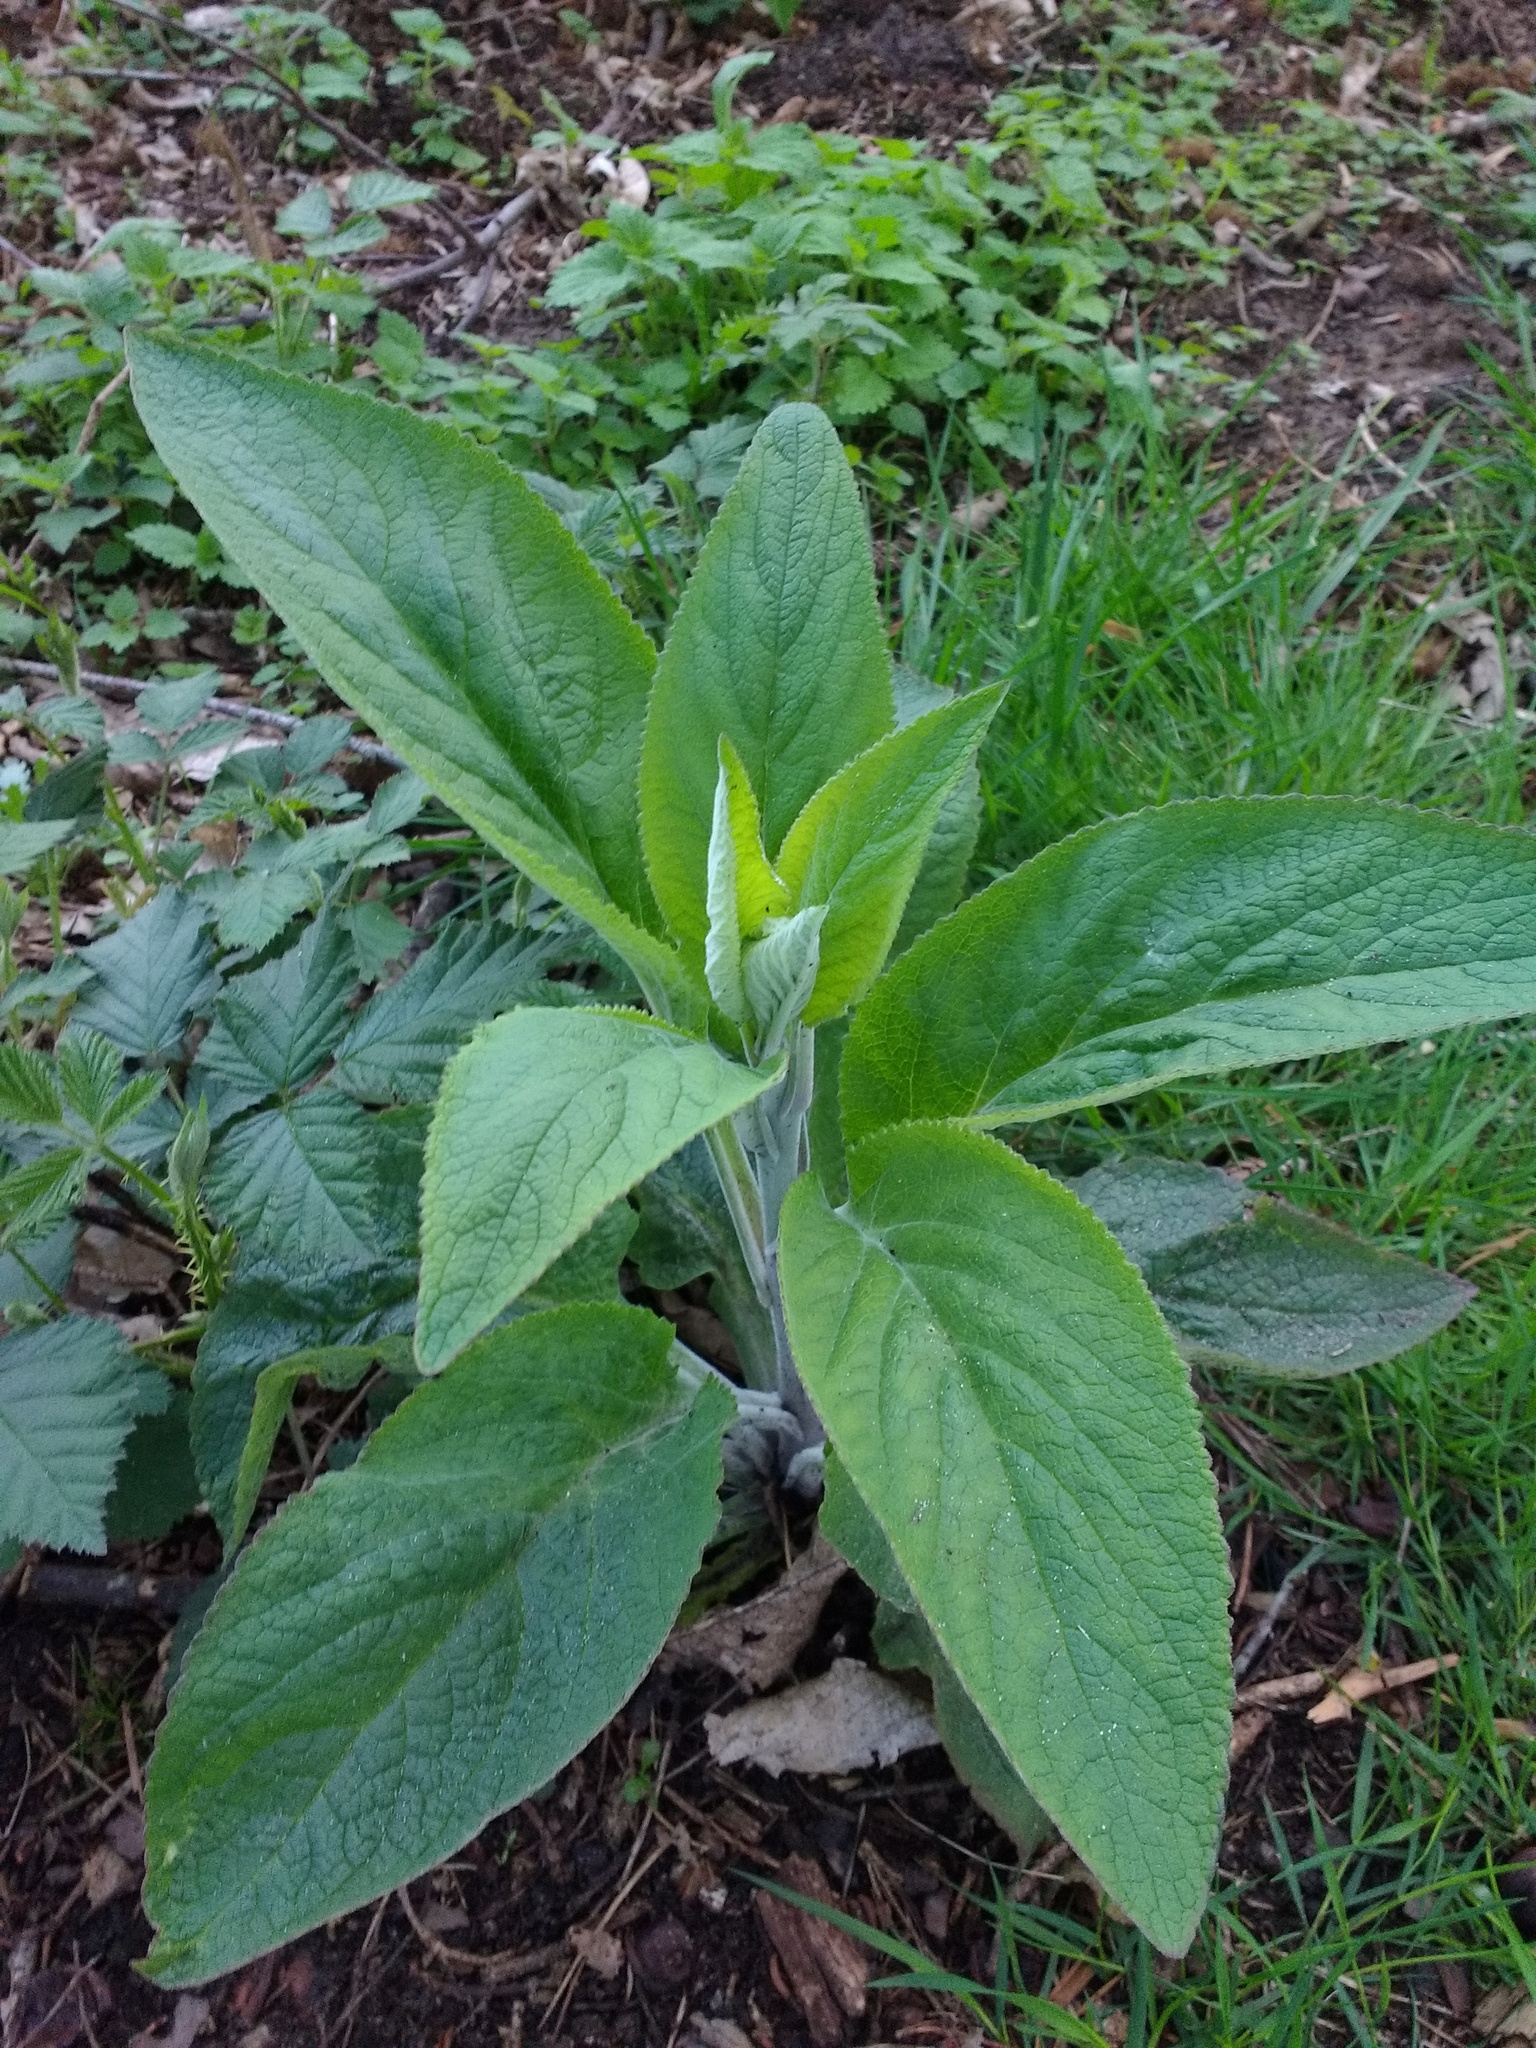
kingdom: Plantae
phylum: Tracheophyta
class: Magnoliopsida
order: Lamiales
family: Plantaginaceae
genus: Digitalis
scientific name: Digitalis purpurea
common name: Foxglove
